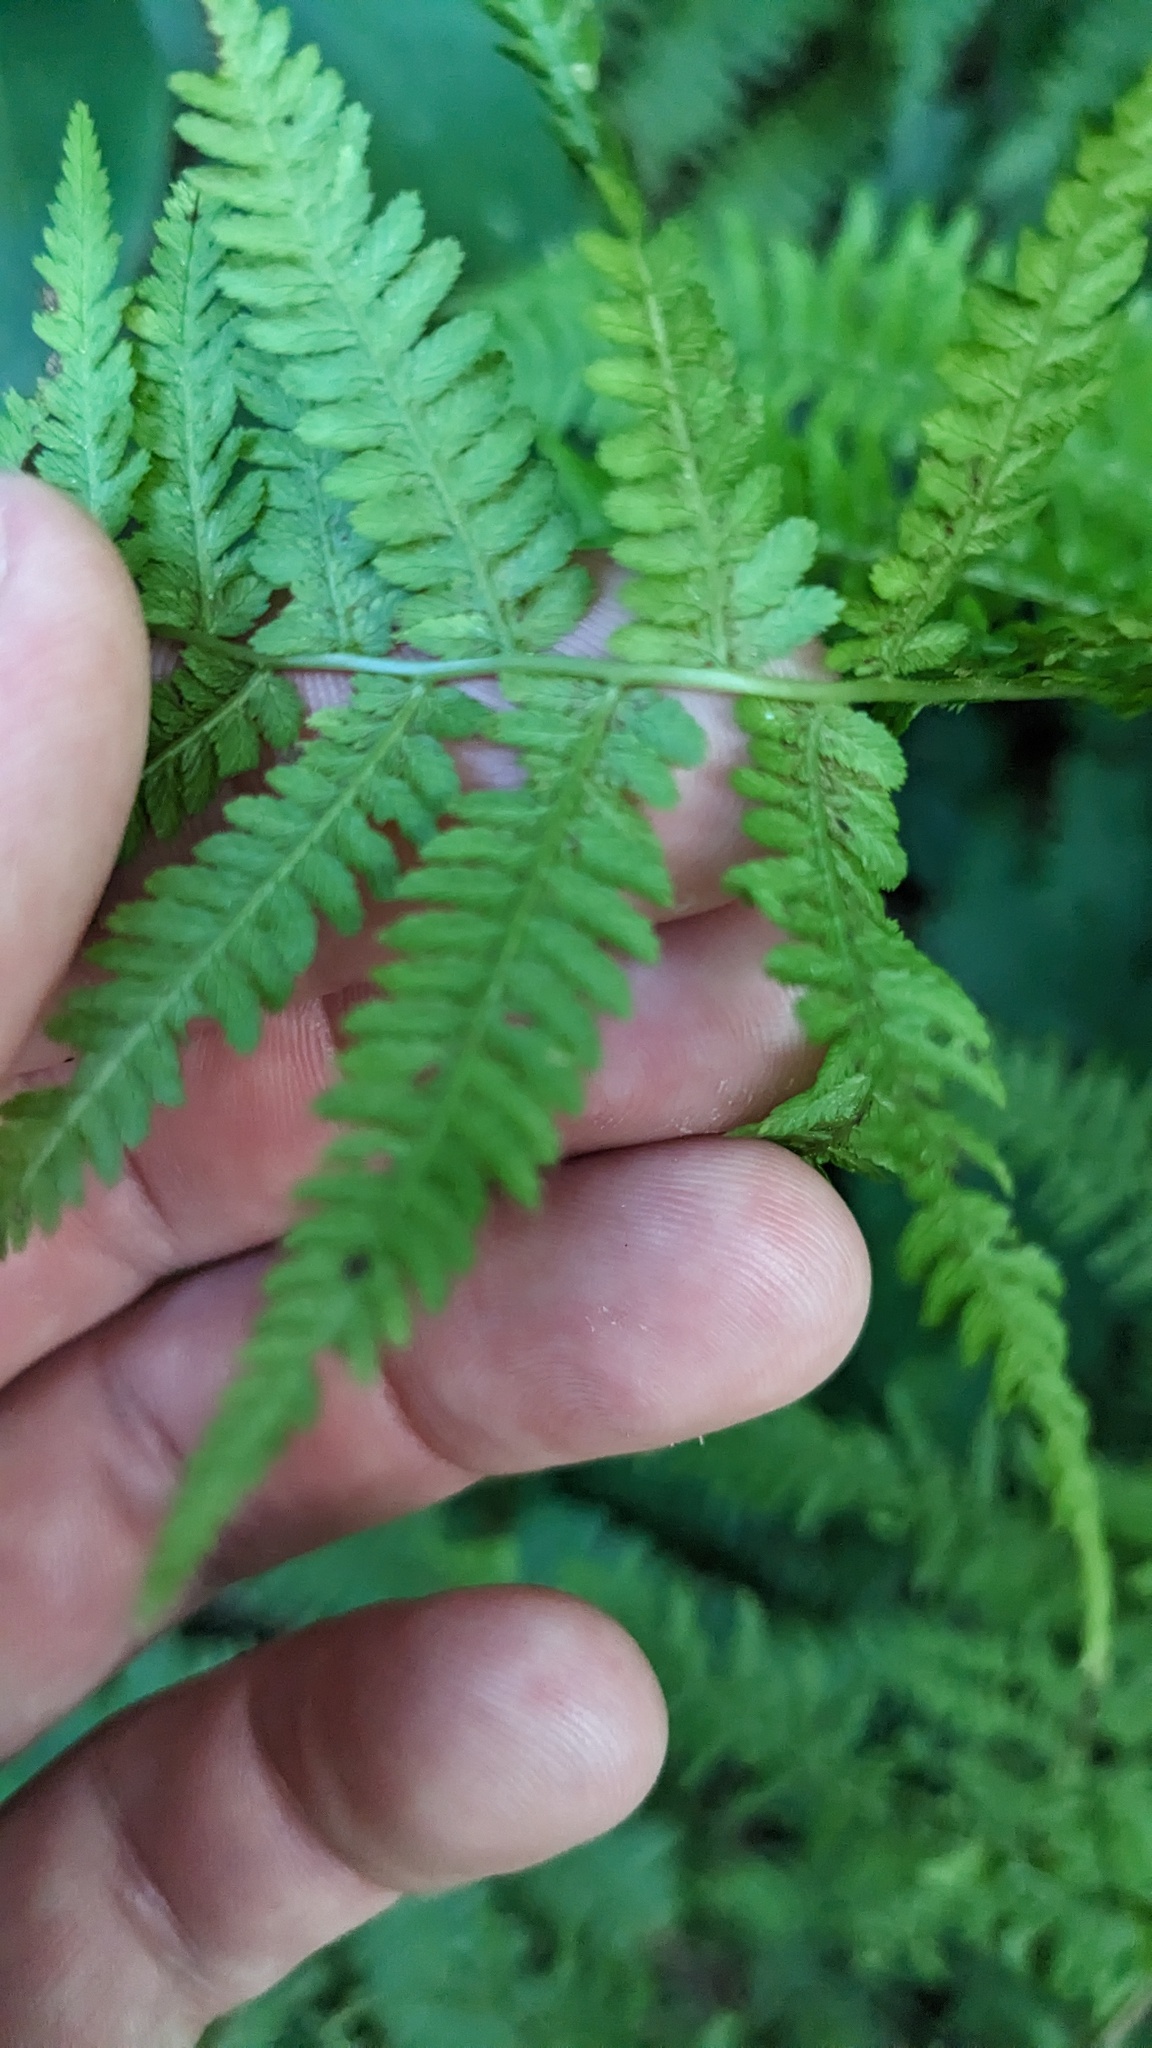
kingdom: Plantae
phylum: Tracheophyta
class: Polypodiopsida
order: Polypodiales
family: Athyriaceae
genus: Athyrium
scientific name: Athyrium angustum
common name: Northern lady fern
